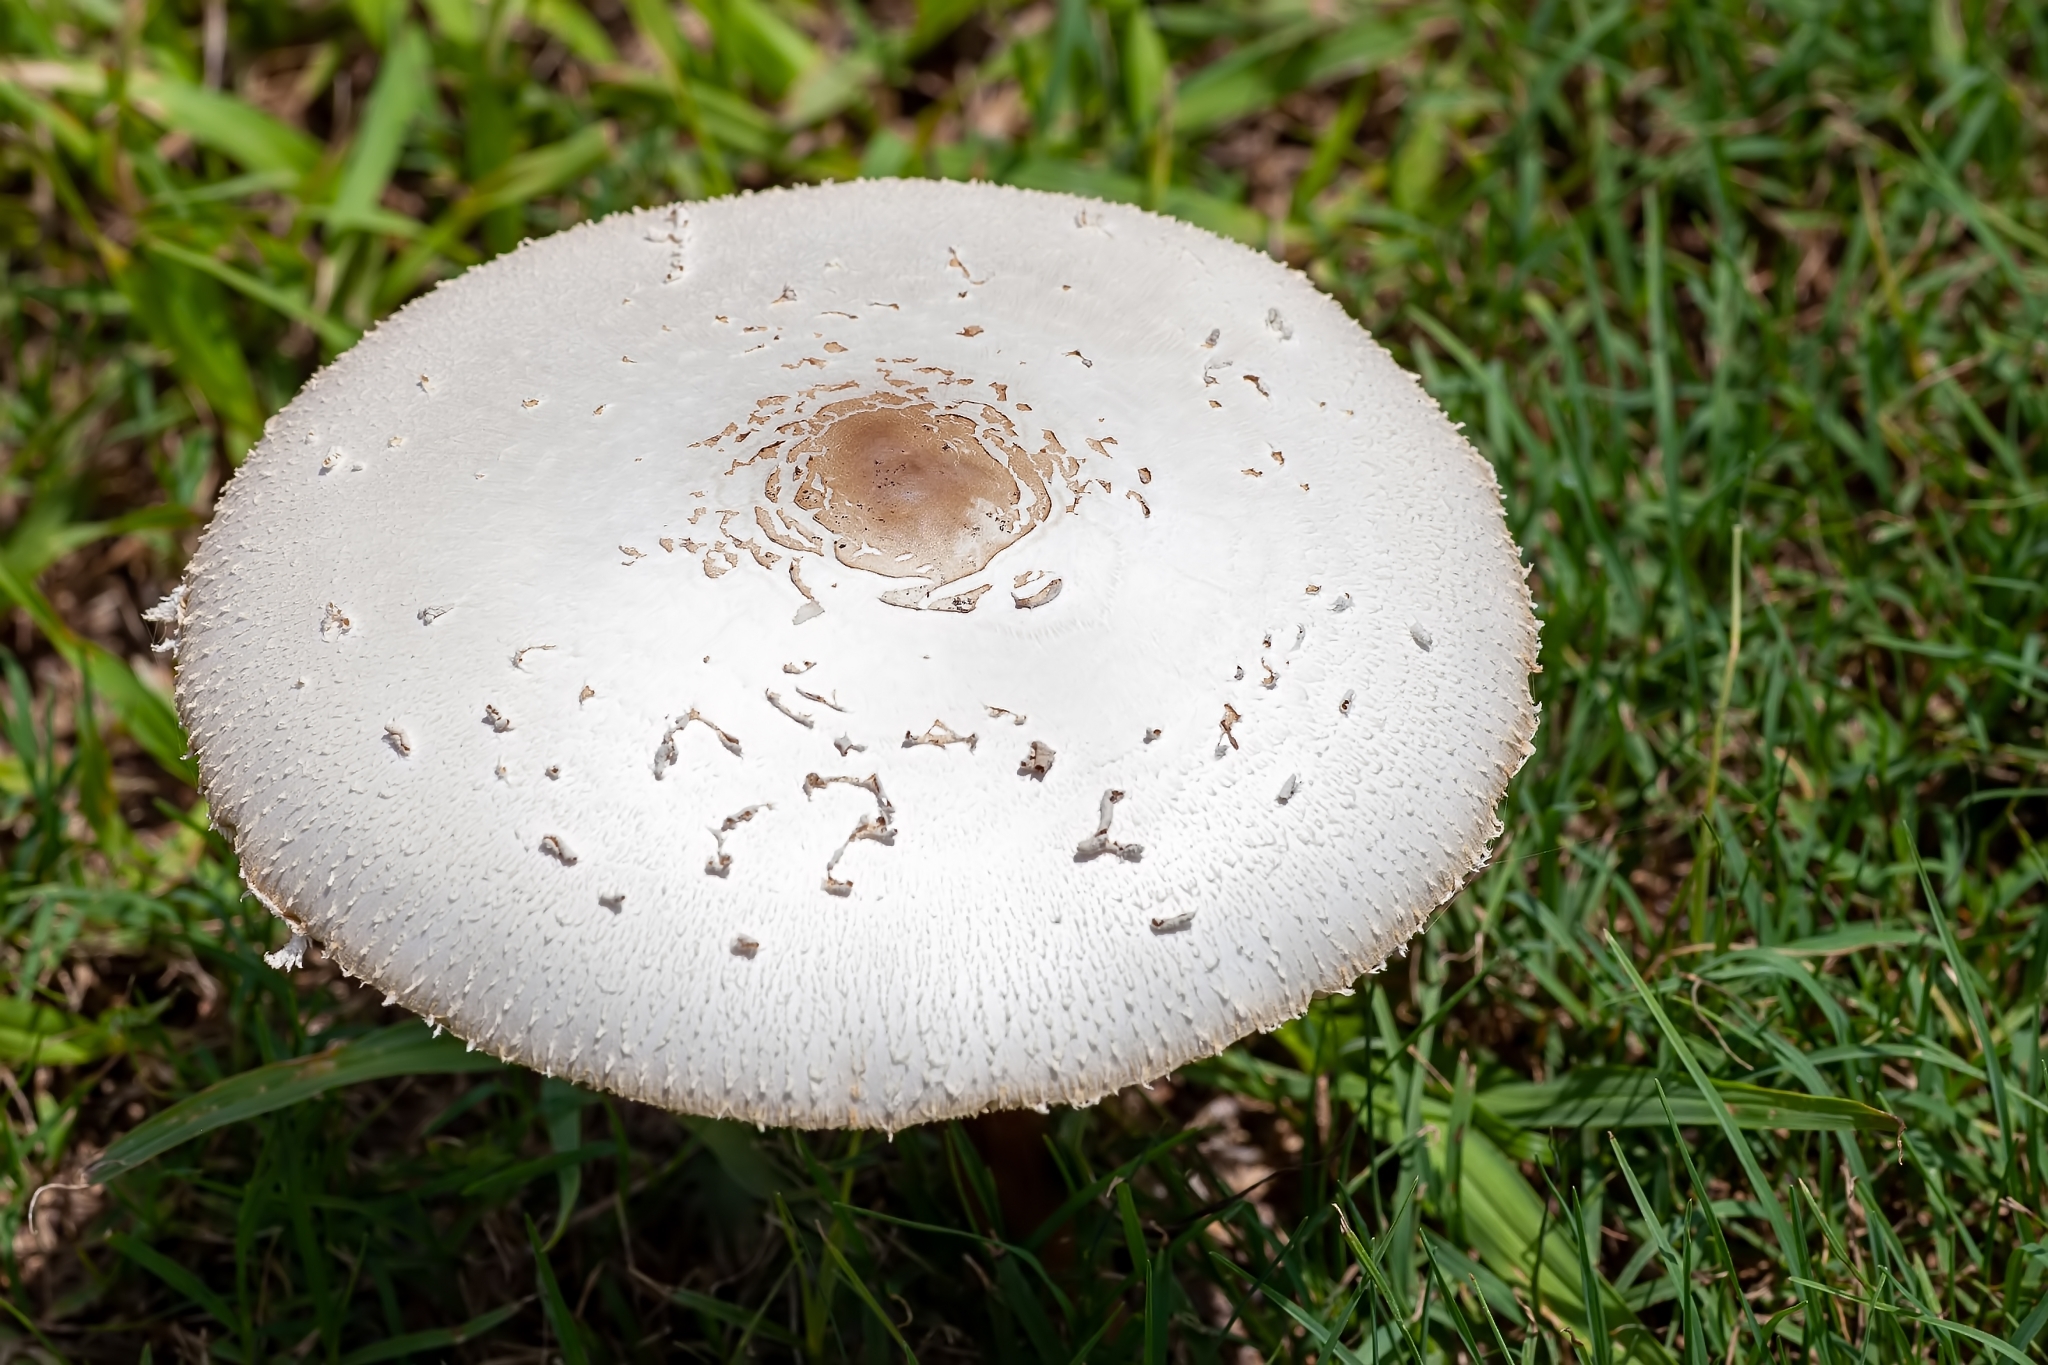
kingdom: Fungi
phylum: Basidiomycota
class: Agaricomycetes
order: Agaricales
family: Agaricaceae
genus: Chlorophyllum
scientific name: Chlorophyllum molybdites
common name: False parasol
